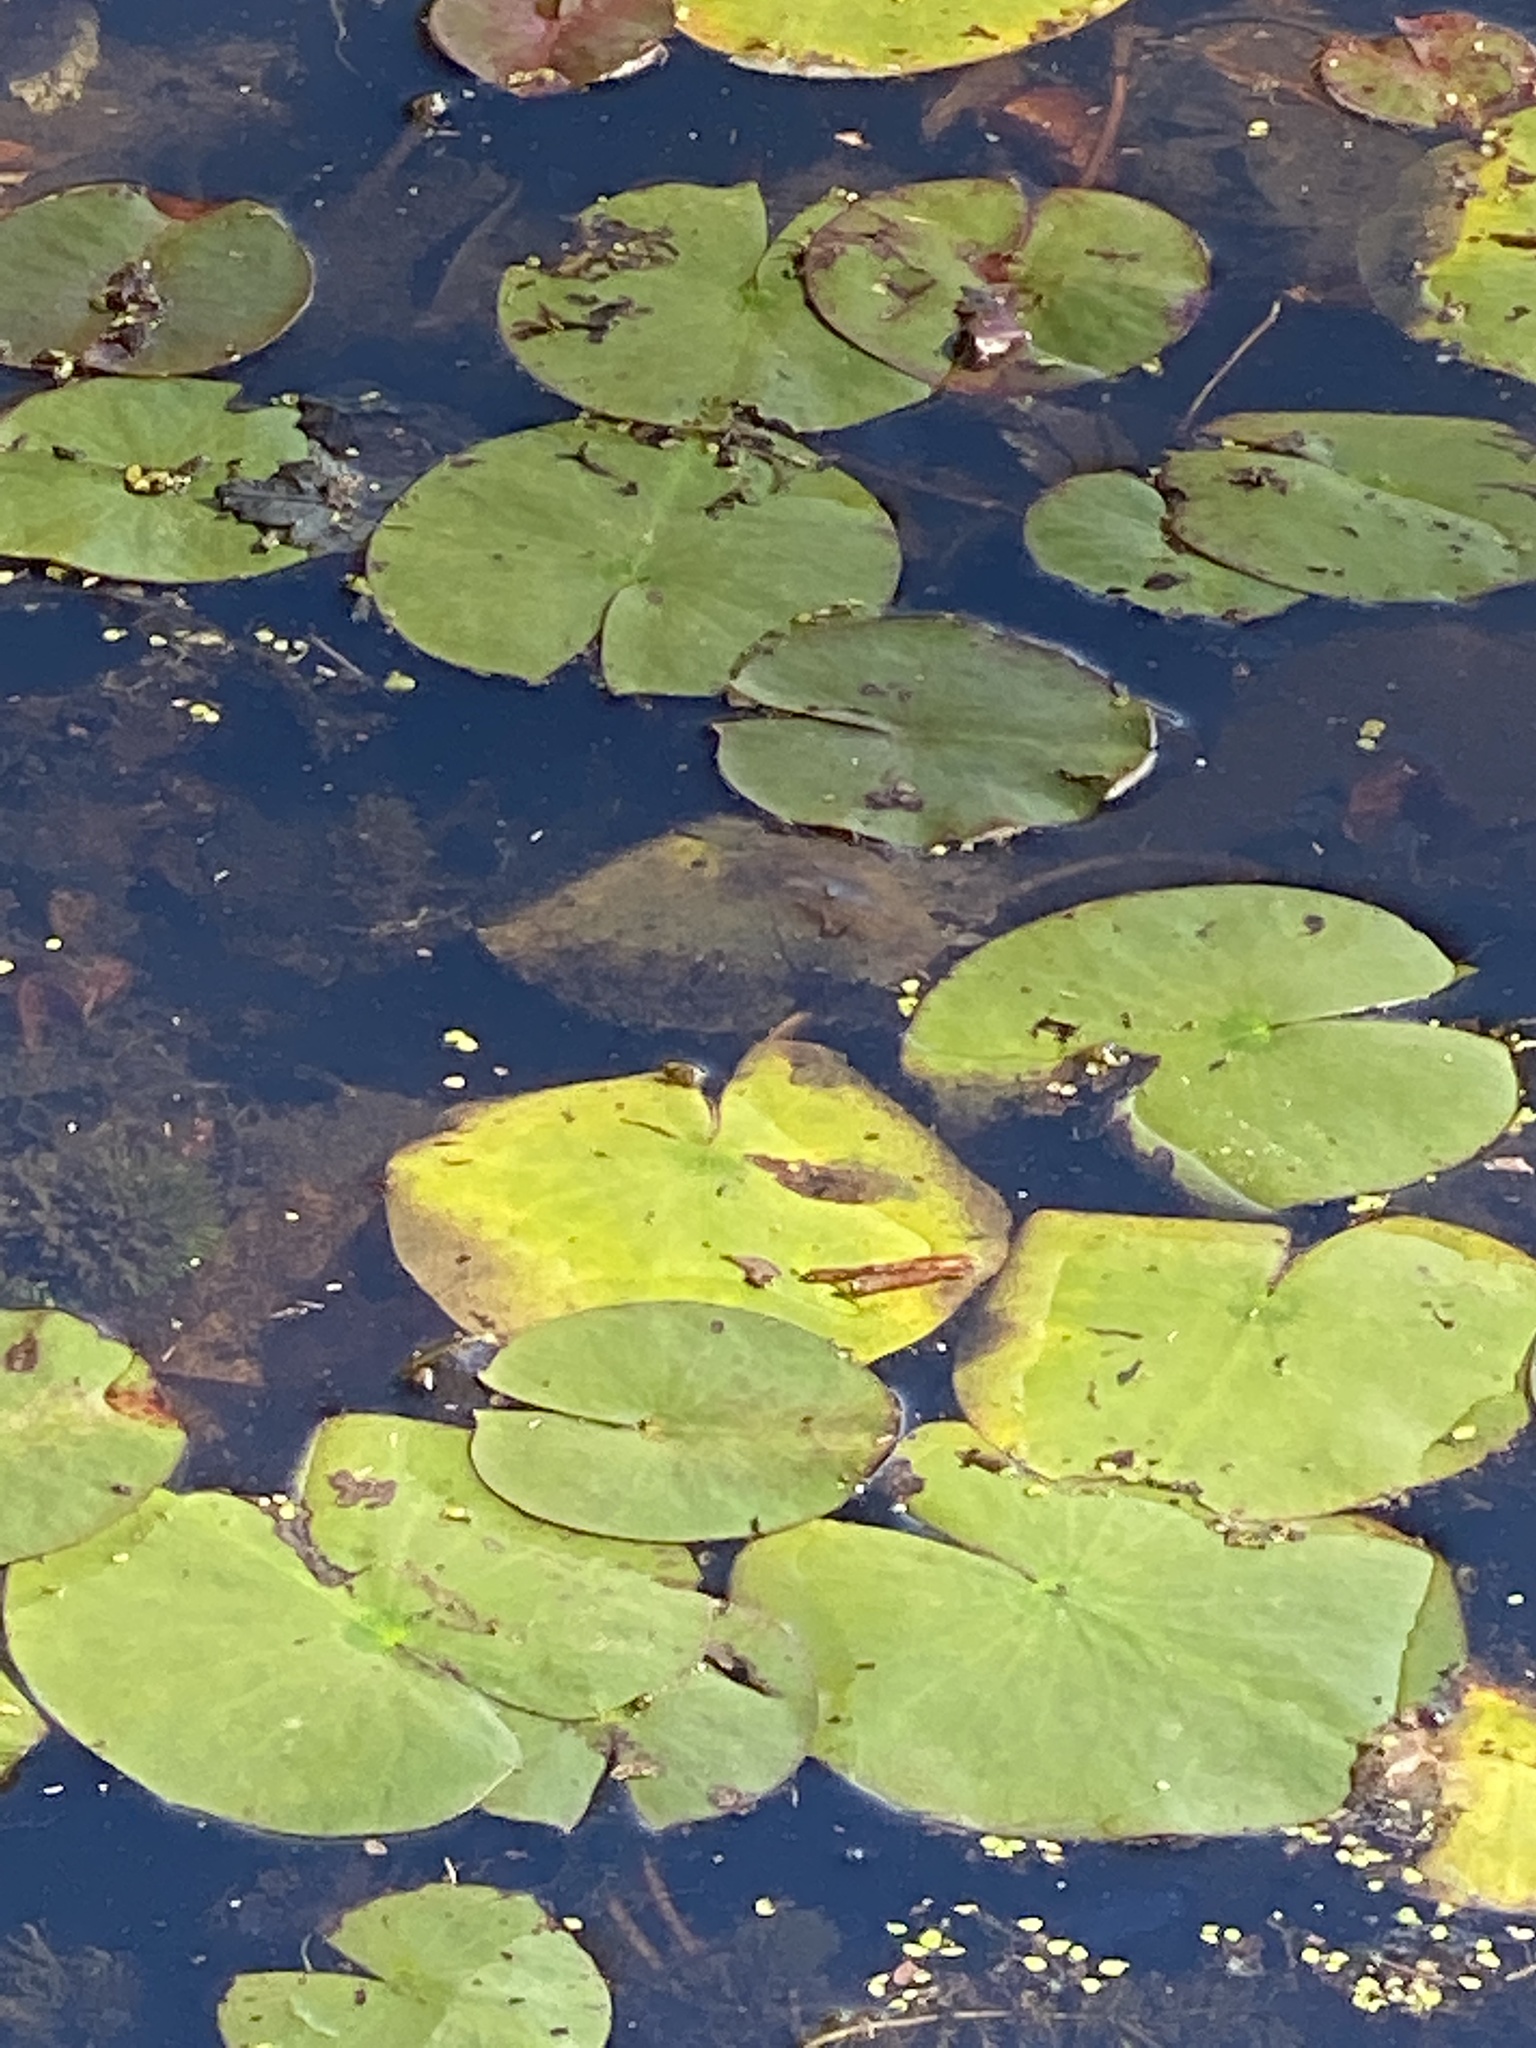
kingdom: Plantae
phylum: Tracheophyta
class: Magnoliopsida
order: Nymphaeales
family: Nymphaeaceae
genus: Nymphaea
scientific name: Nymphaea odorata
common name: Fragrant water-lily
